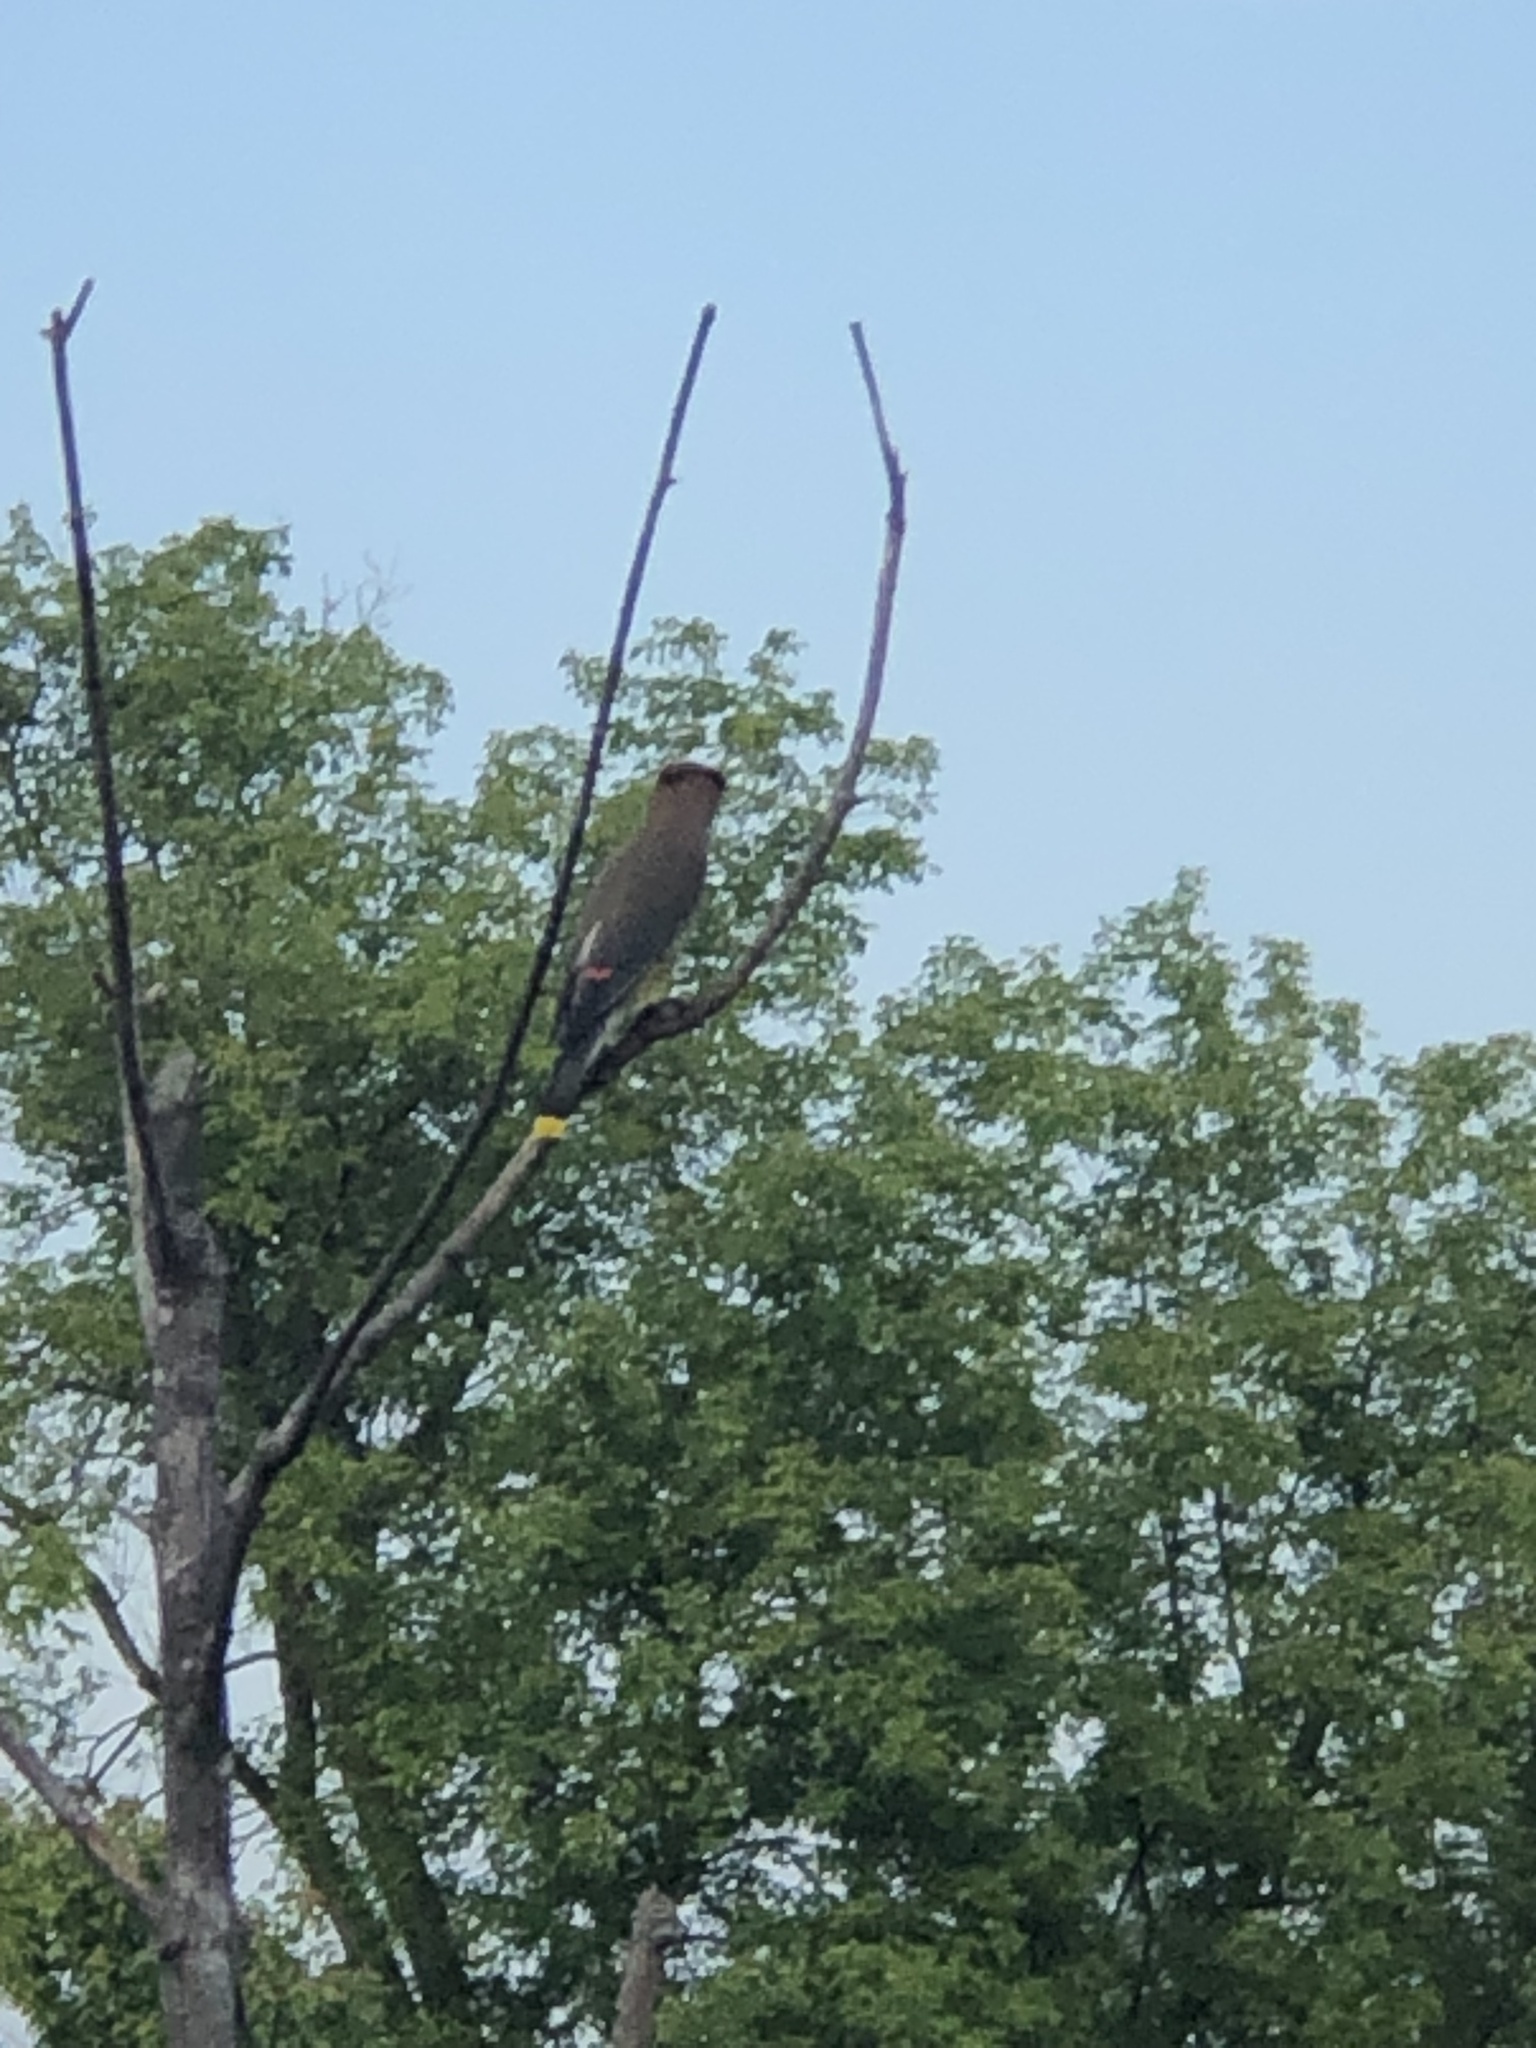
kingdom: Animalia
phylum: Chordata
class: Aves
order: Passeriformes
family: Bombycillidae
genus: Bombycilla
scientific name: Bombycilla cedrorum
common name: Cedar waxwing
